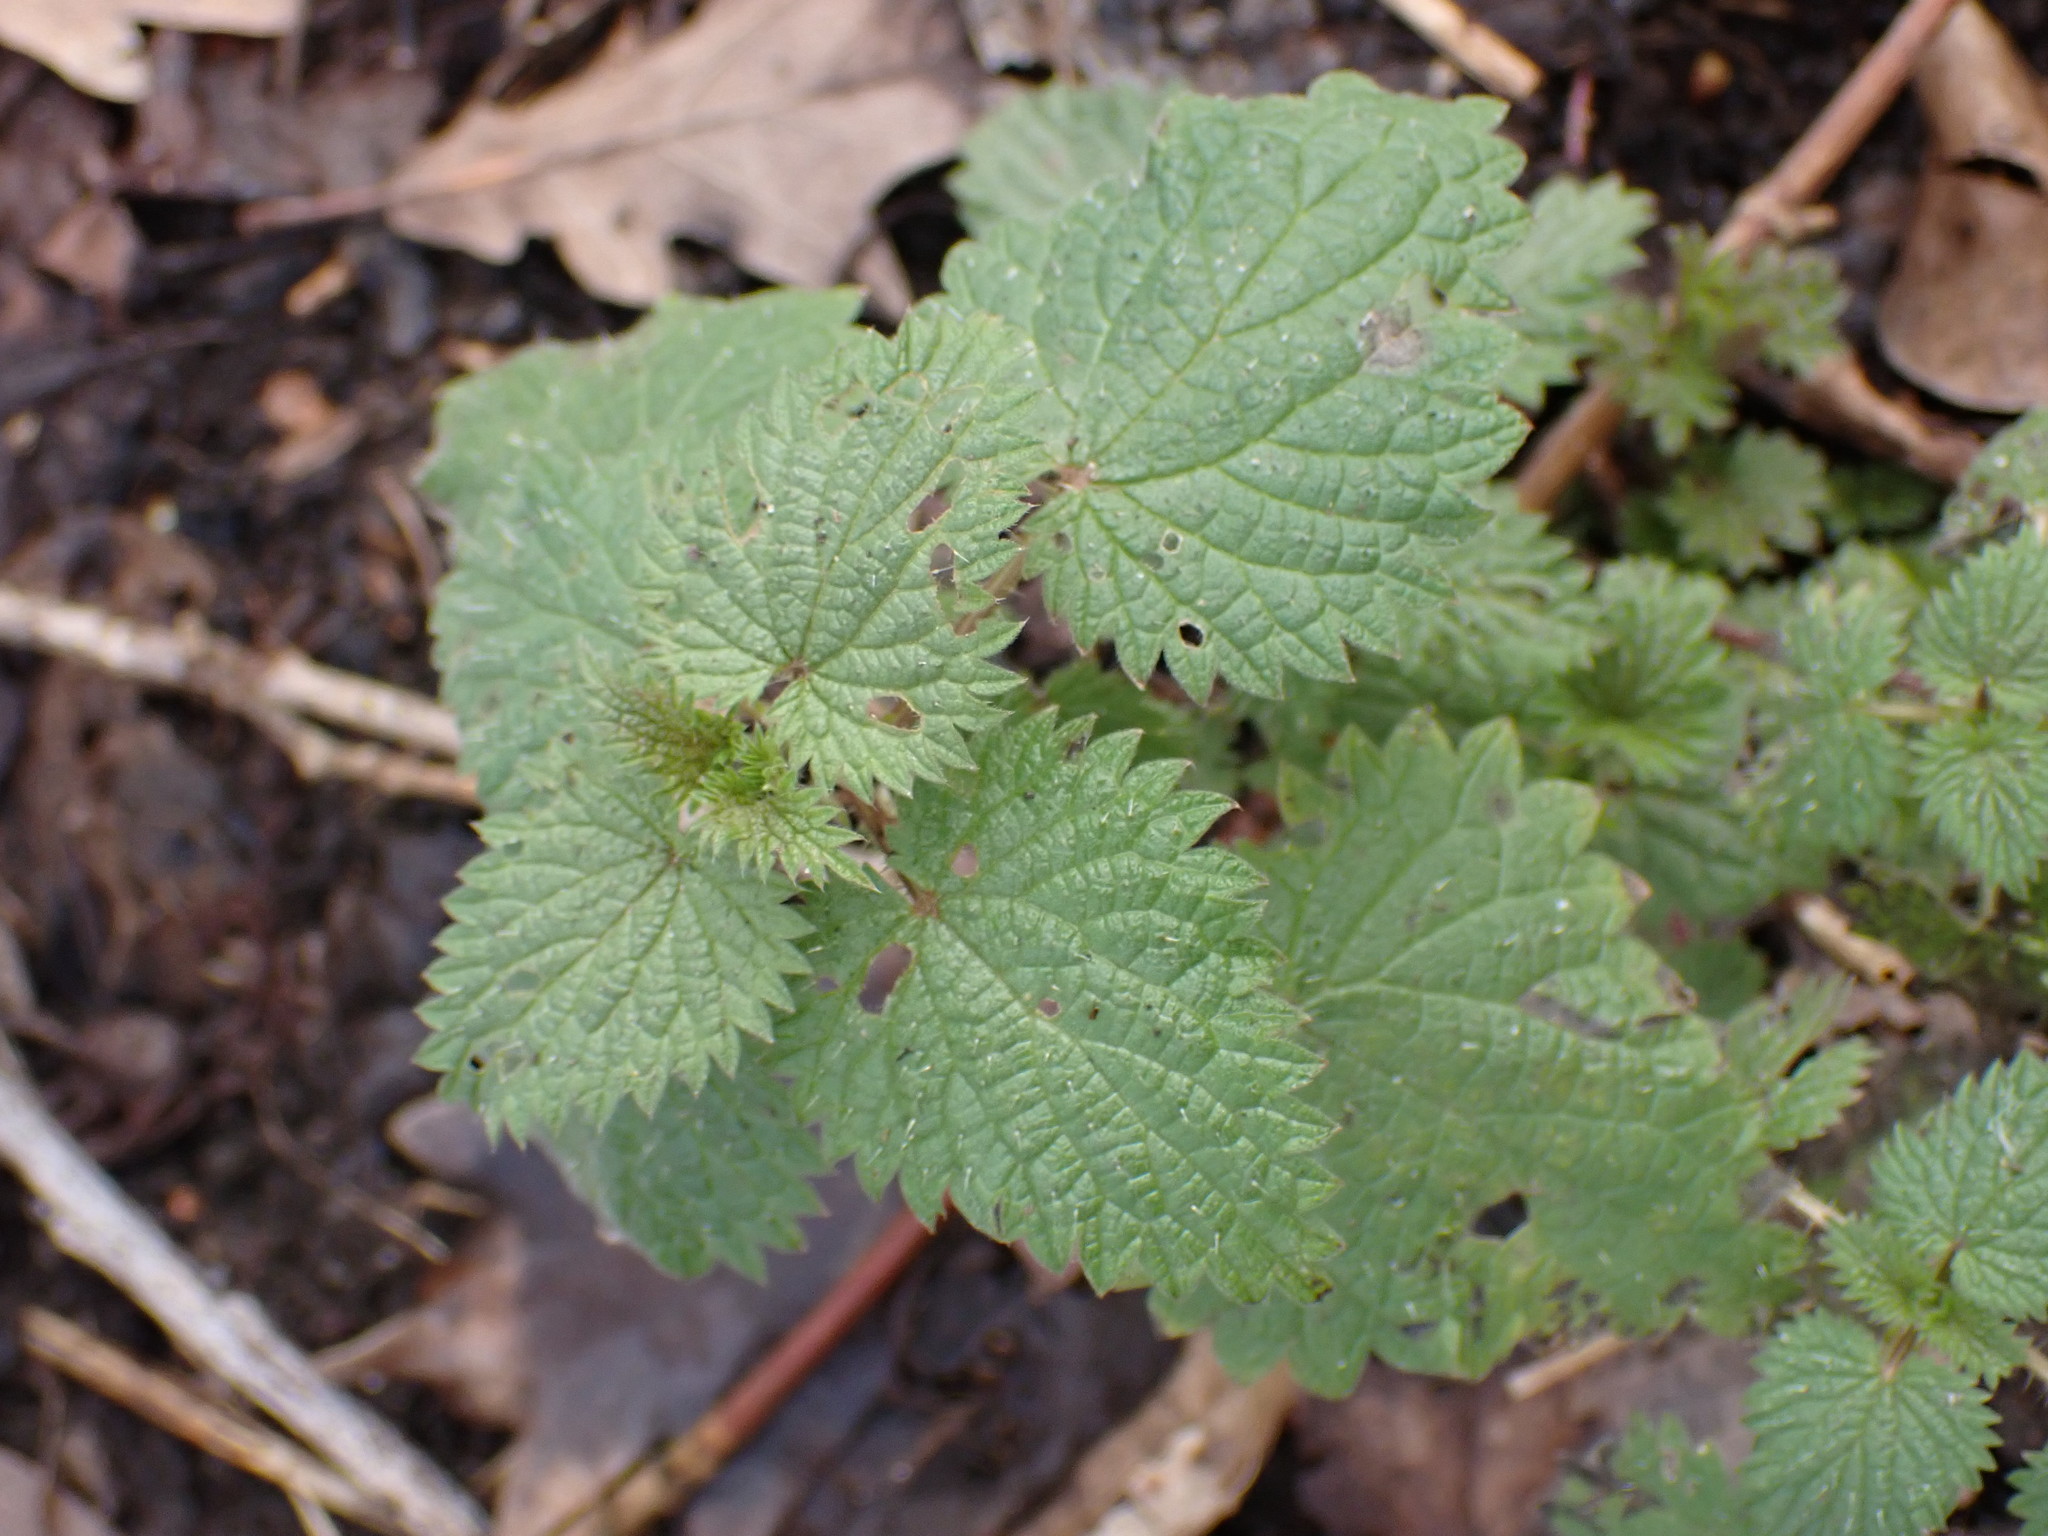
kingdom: Plantae
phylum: Tracheophyta
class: Magnoliopsida
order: Rosales
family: Urticaceae
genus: Urtica
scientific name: Urtica dioica
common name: Common nettle
